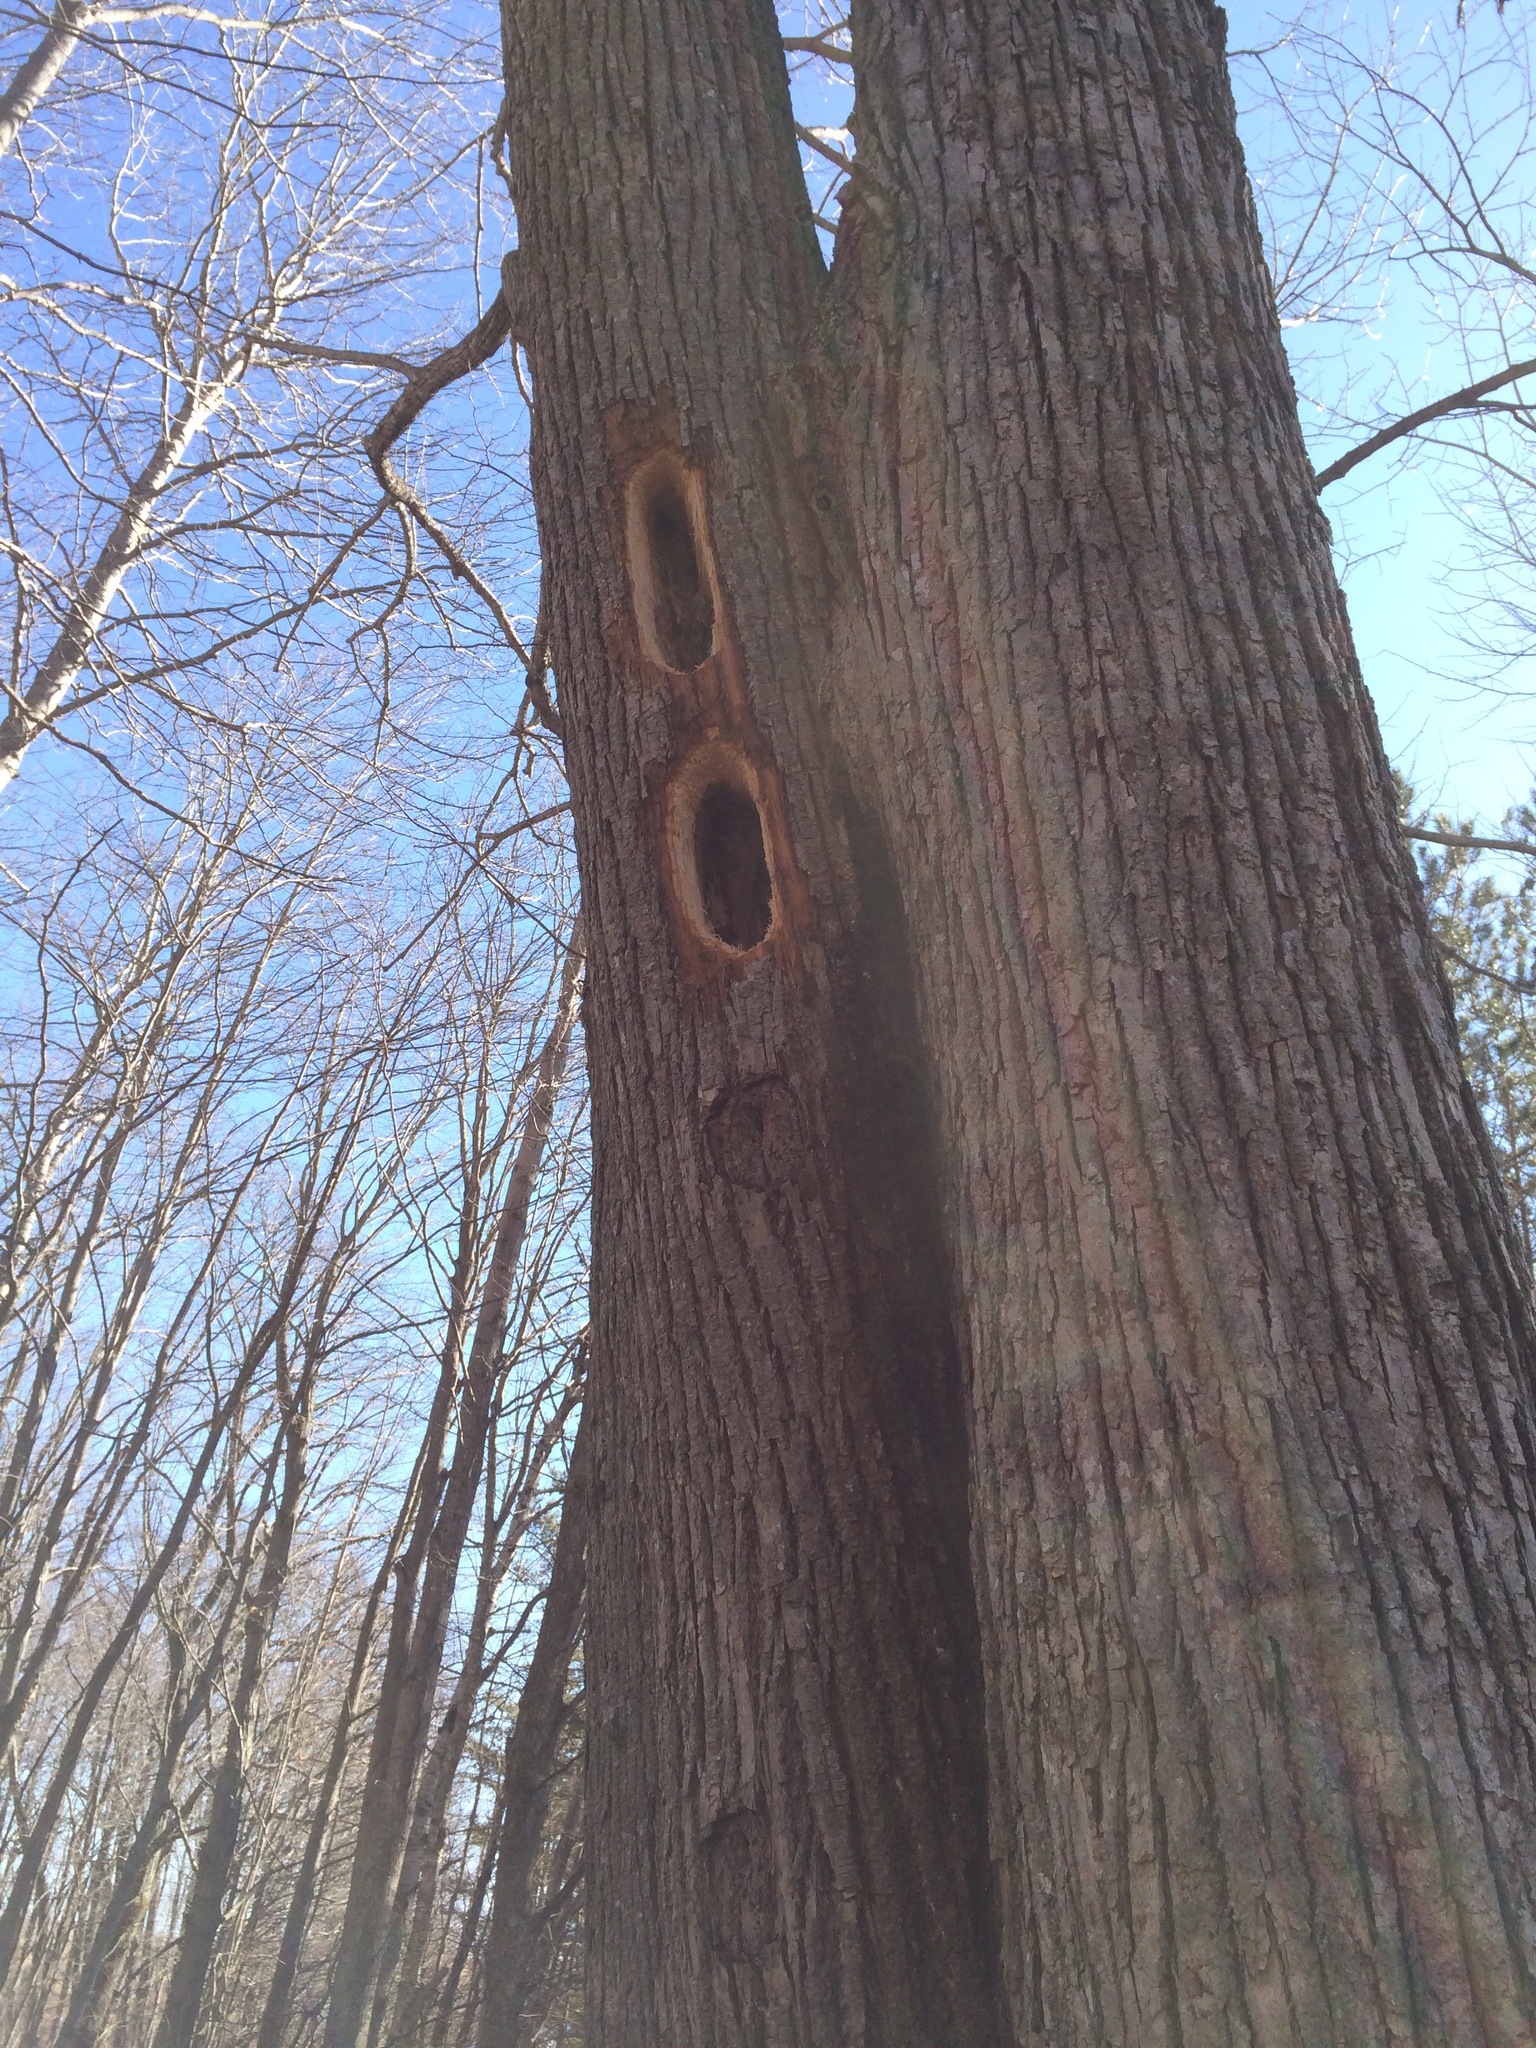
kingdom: Animalia
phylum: Chordata
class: Aves
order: Piciformes
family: Picidae
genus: Dryocopus
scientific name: Dryocopus pileatus
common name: Pileated woodpecker
